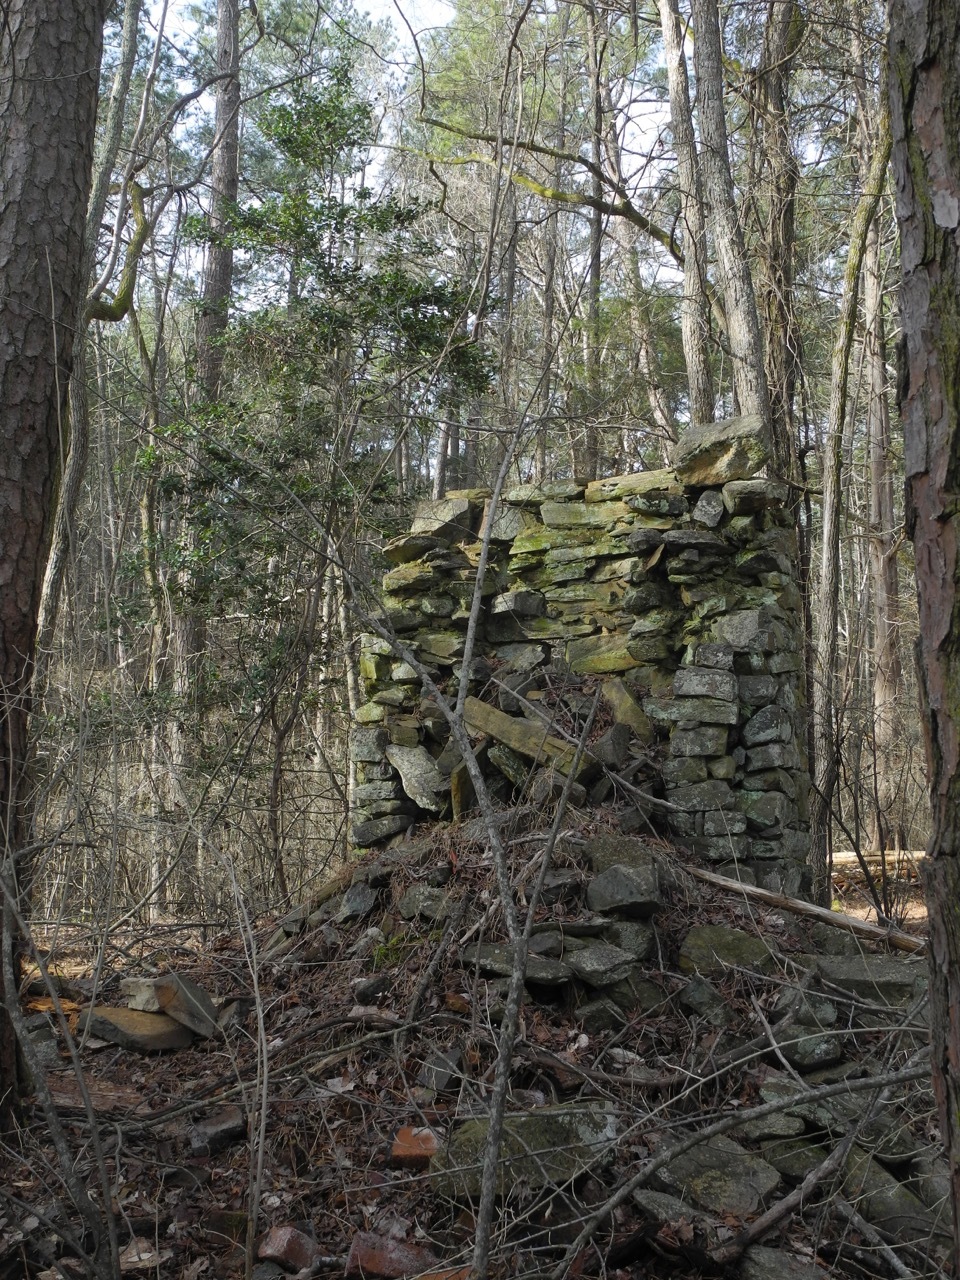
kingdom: Plantae
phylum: Tracheophyta
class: Magnoliopsida
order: Aquifoliales
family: Aquifoliaceae
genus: Ilex
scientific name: Ilex opaca
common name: American holly
